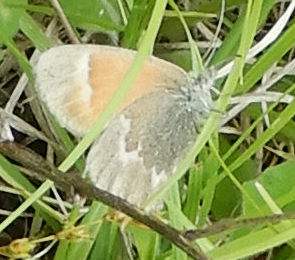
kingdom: Animalia
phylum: Arthropoda
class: Insecta
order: Lepidoptera
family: Nymphalidae
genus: Coenonympha
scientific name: Coenonympha california
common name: Common ringlet
